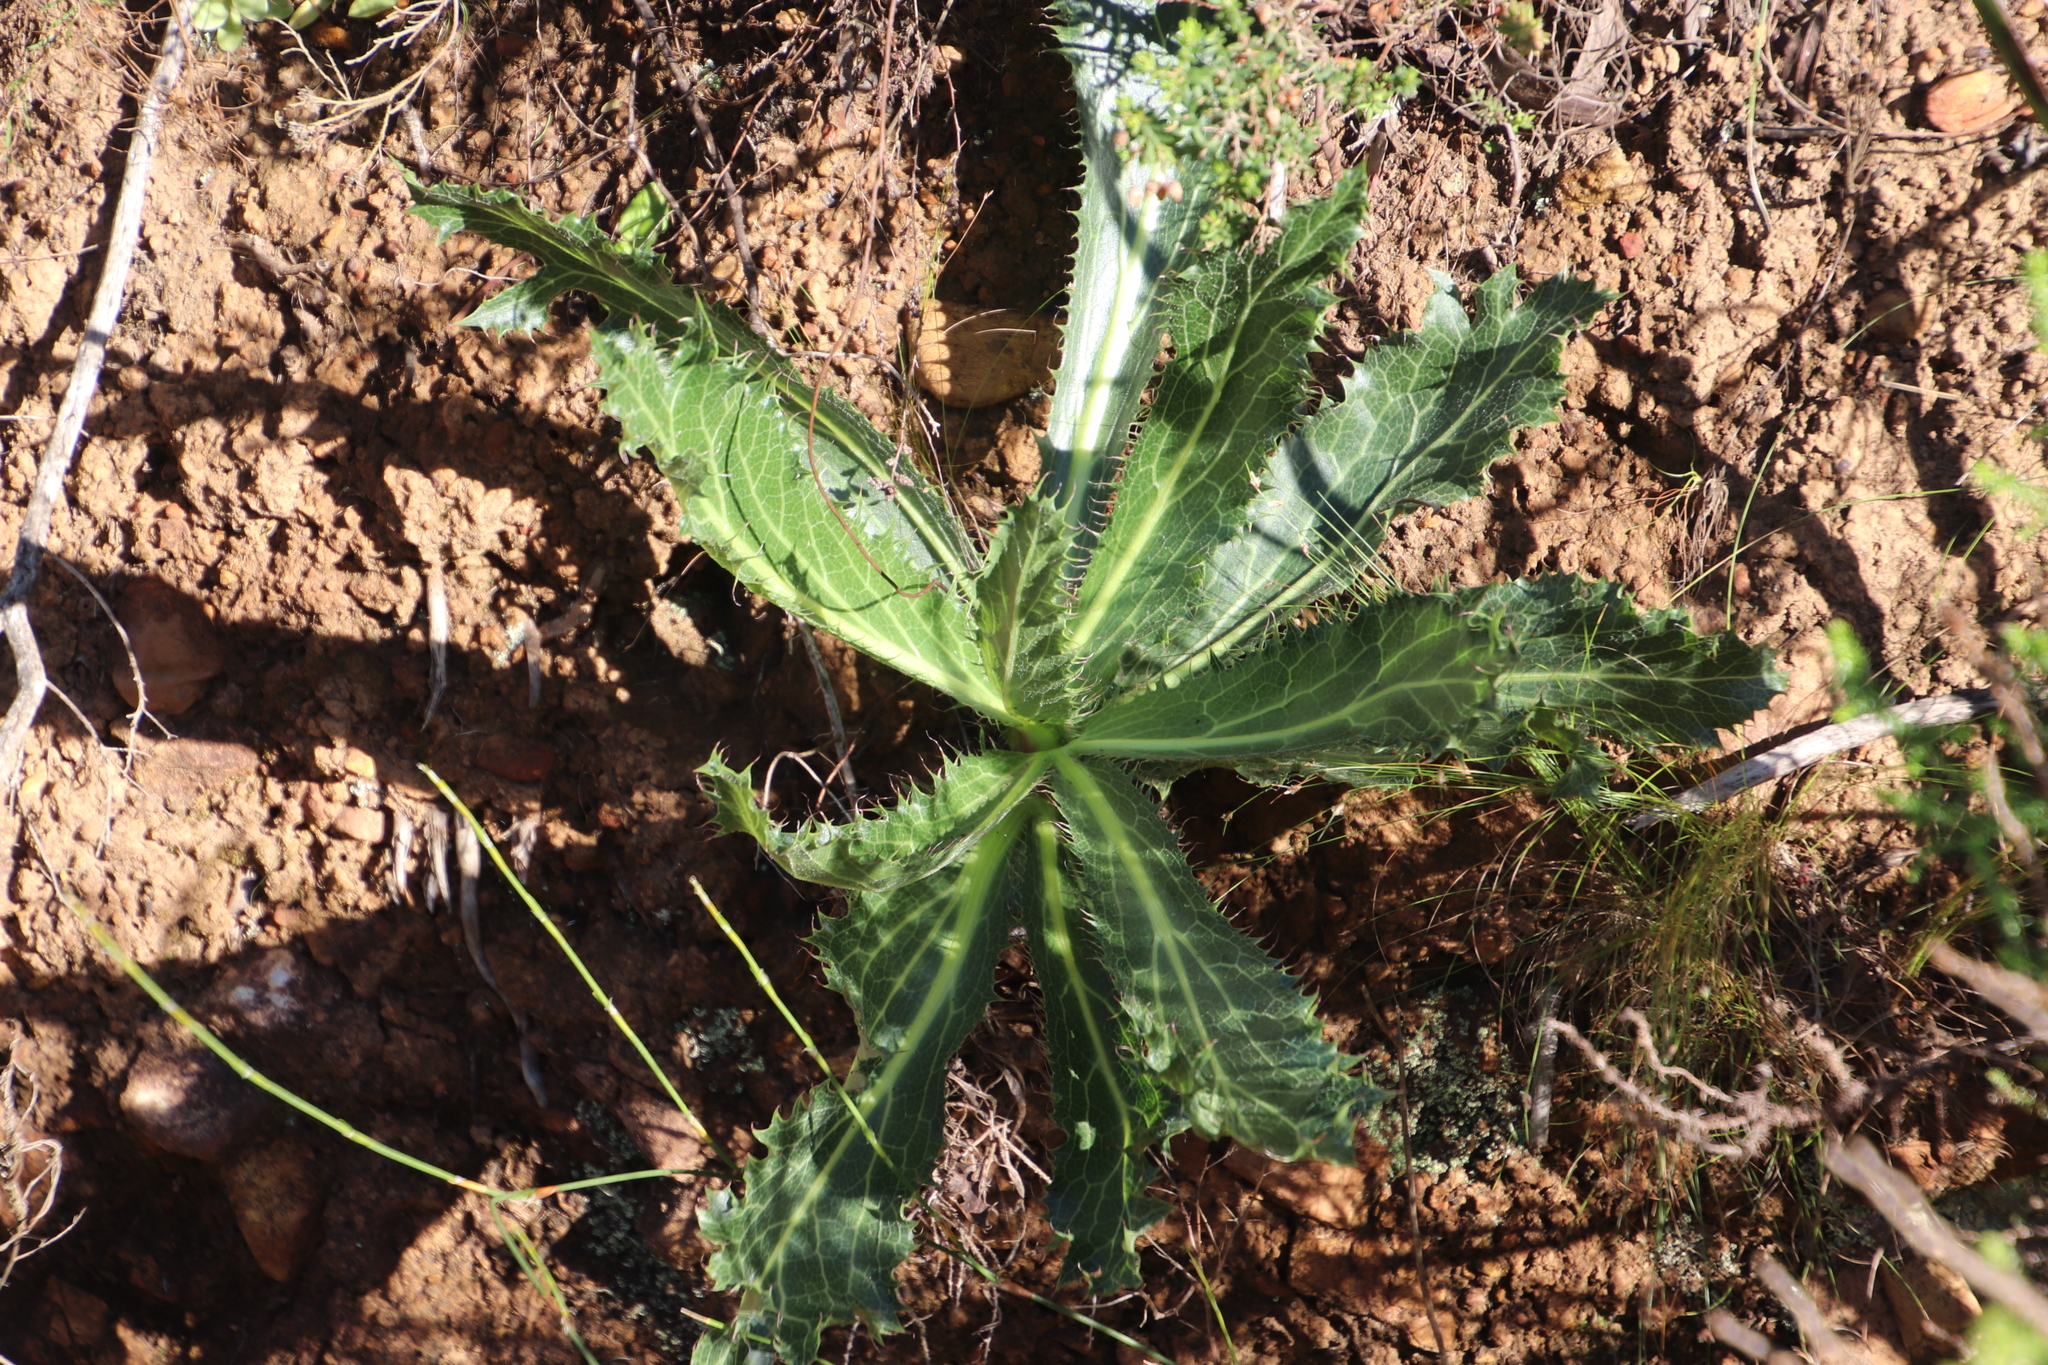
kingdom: Plantae
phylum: Tracheophyta
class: Magnoliopsida
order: Apiales
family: Apiaceae
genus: Lichtensteinia
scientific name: Lichtensteinia lacera
